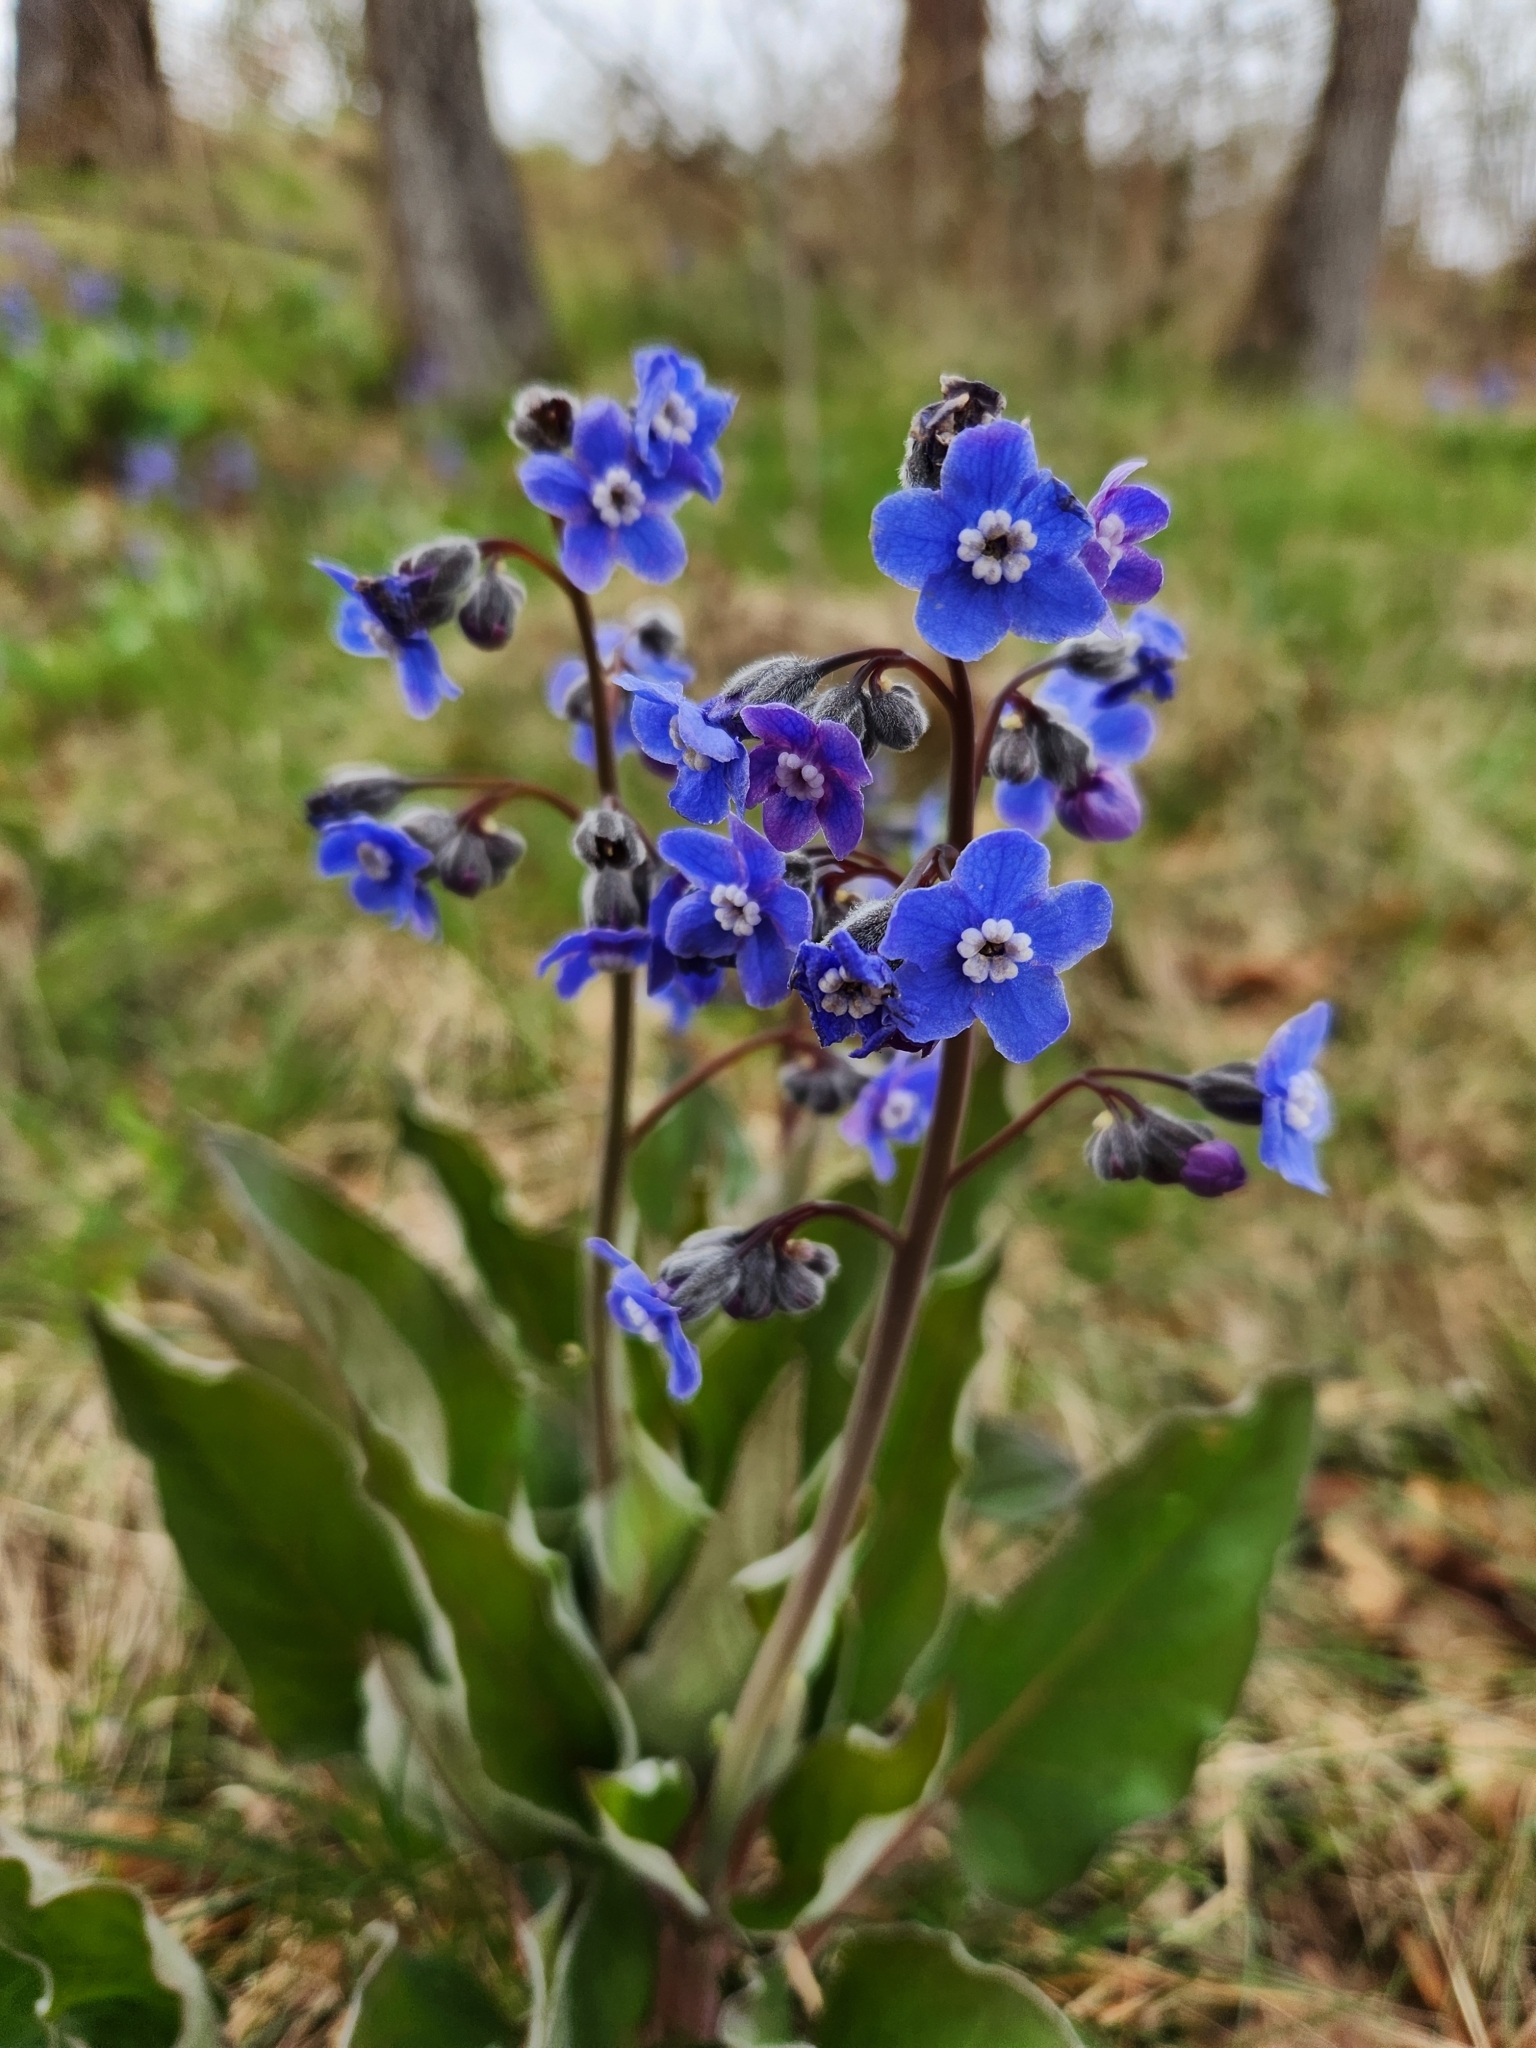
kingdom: Plantae
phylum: Tracheophyta
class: Magnoliopsida
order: Boraginales
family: Boraginaceae
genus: Adelinia
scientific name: Adelinia grande
